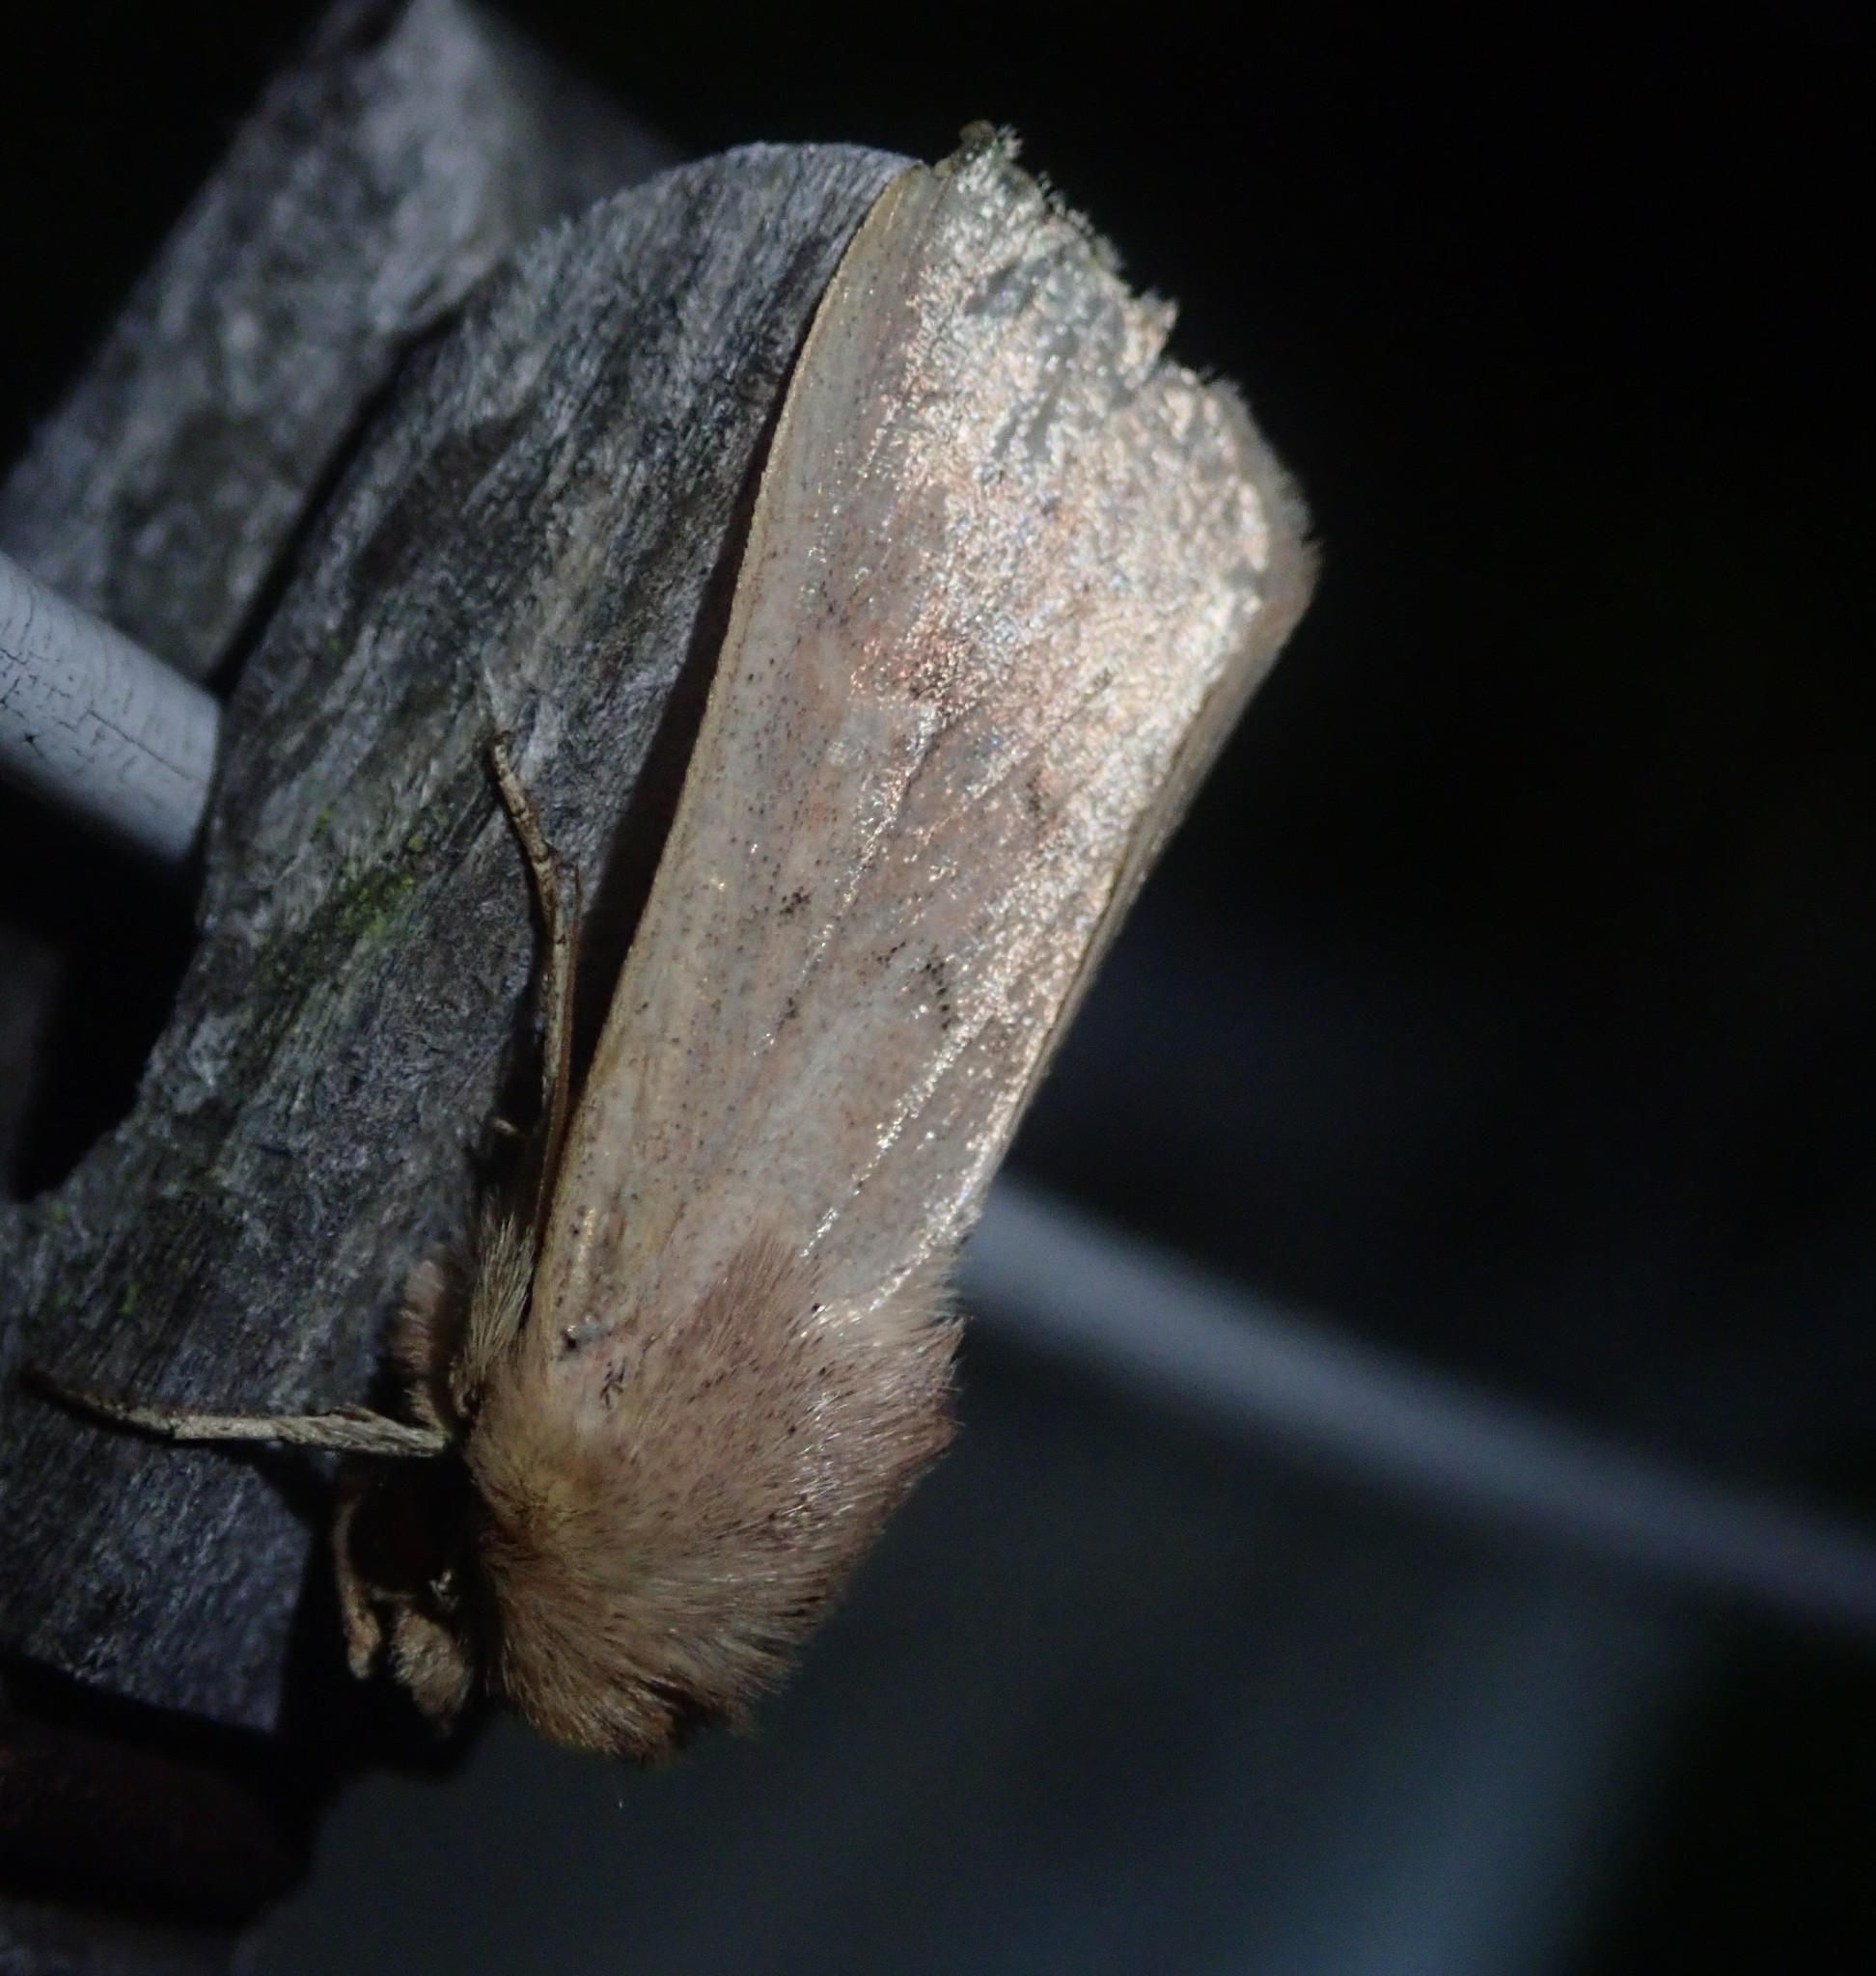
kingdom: Animalia
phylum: Arthropoda
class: Insecta
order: Lepidoptera
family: Noctuidae
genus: Mythimna
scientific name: Mythimna ferrago
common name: Clay
